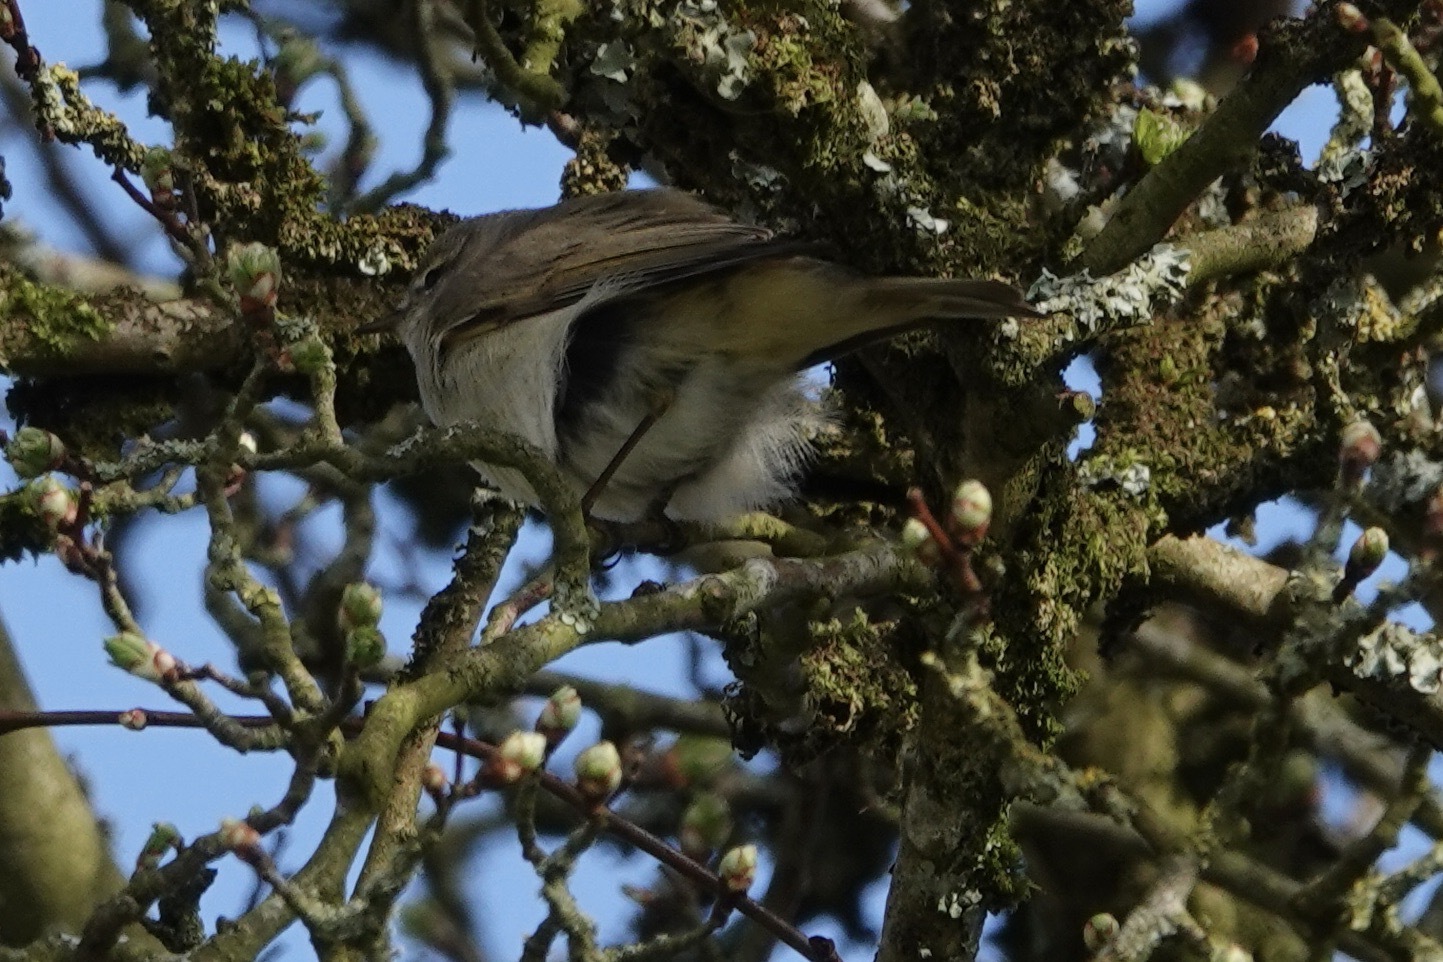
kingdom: Animalia
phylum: Chordata
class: Aves
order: Passeriformes
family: Phylloscopidae
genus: Phylloscopus
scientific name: Phylloscopus collybita
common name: Common chiffchaff
